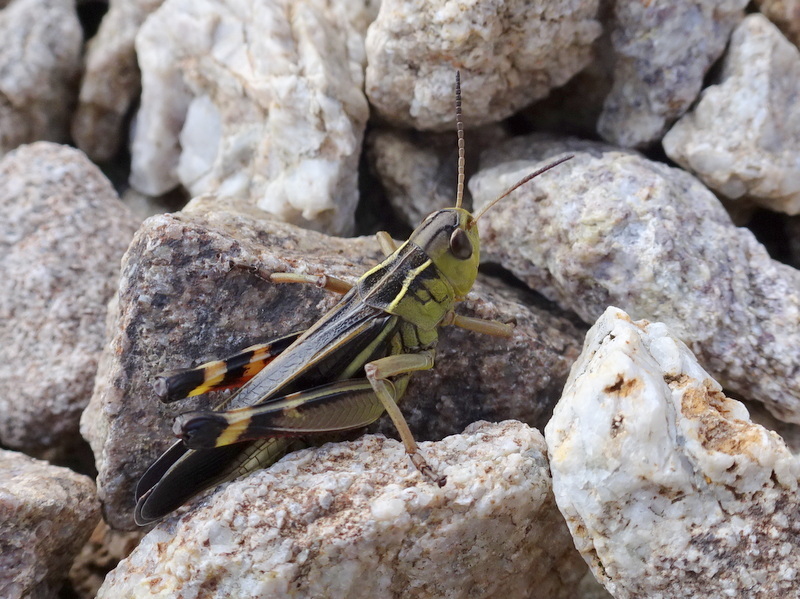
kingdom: Animalia
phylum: Arthropoda
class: Insecta
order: Orthoptera
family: Acrididae
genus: Arcyptera
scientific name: Arcyptera fusca
